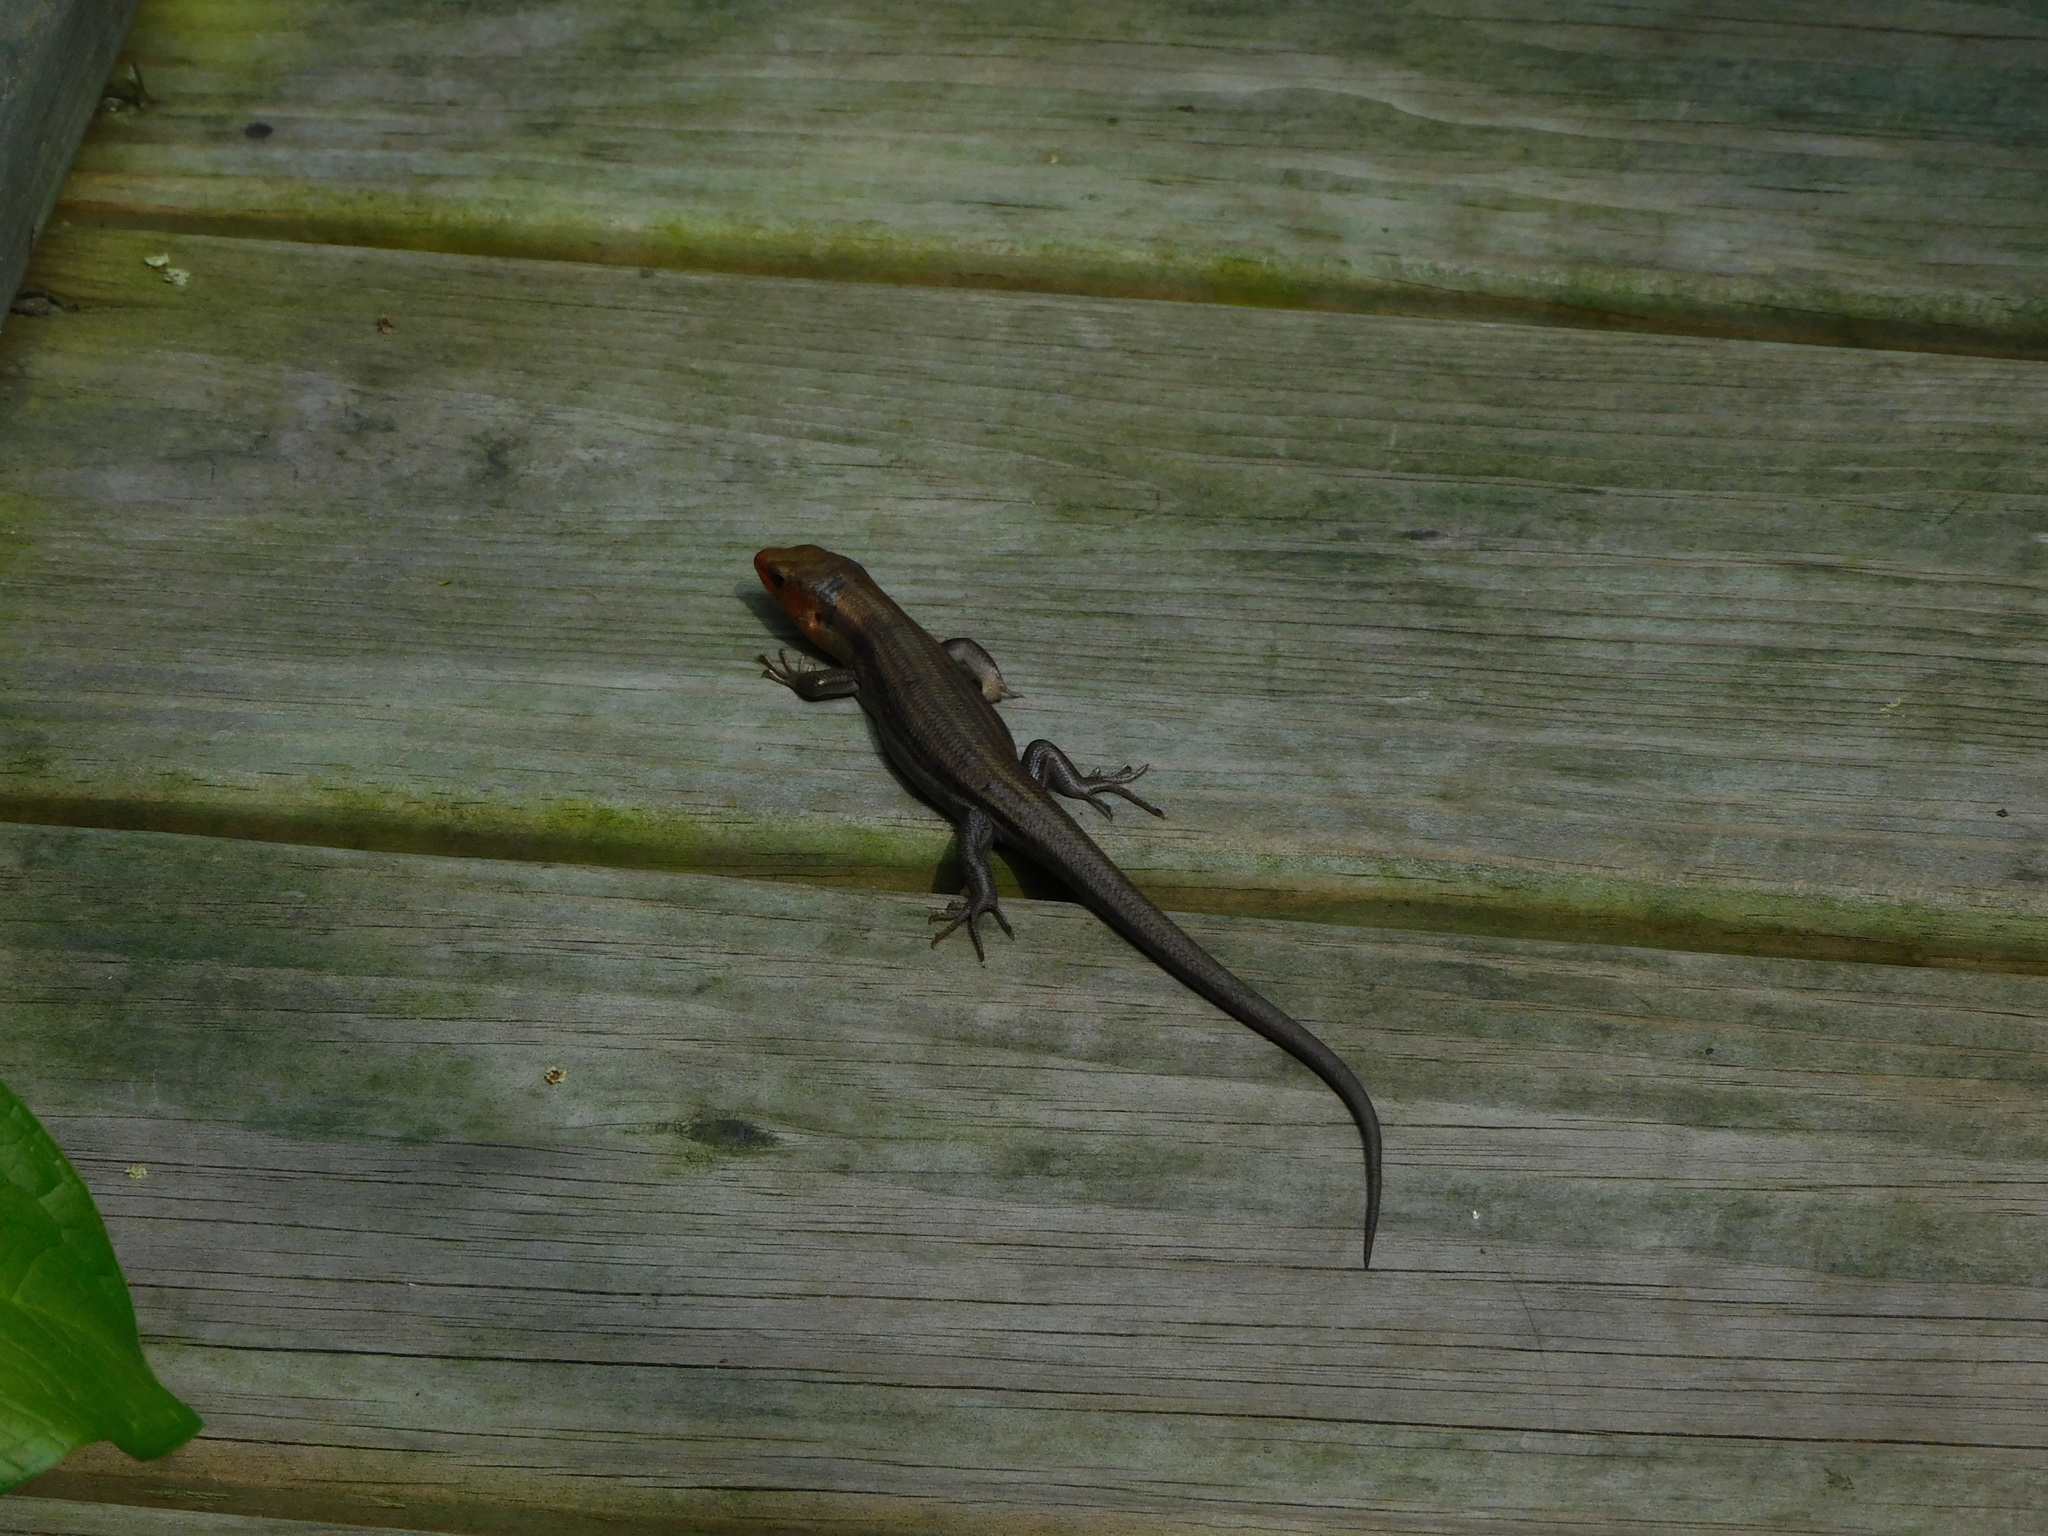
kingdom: Animalia
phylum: Chordata
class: Squamata
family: Scincidae
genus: Plestiodon
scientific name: Plestiodon fasciatus
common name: Five-lined skink
